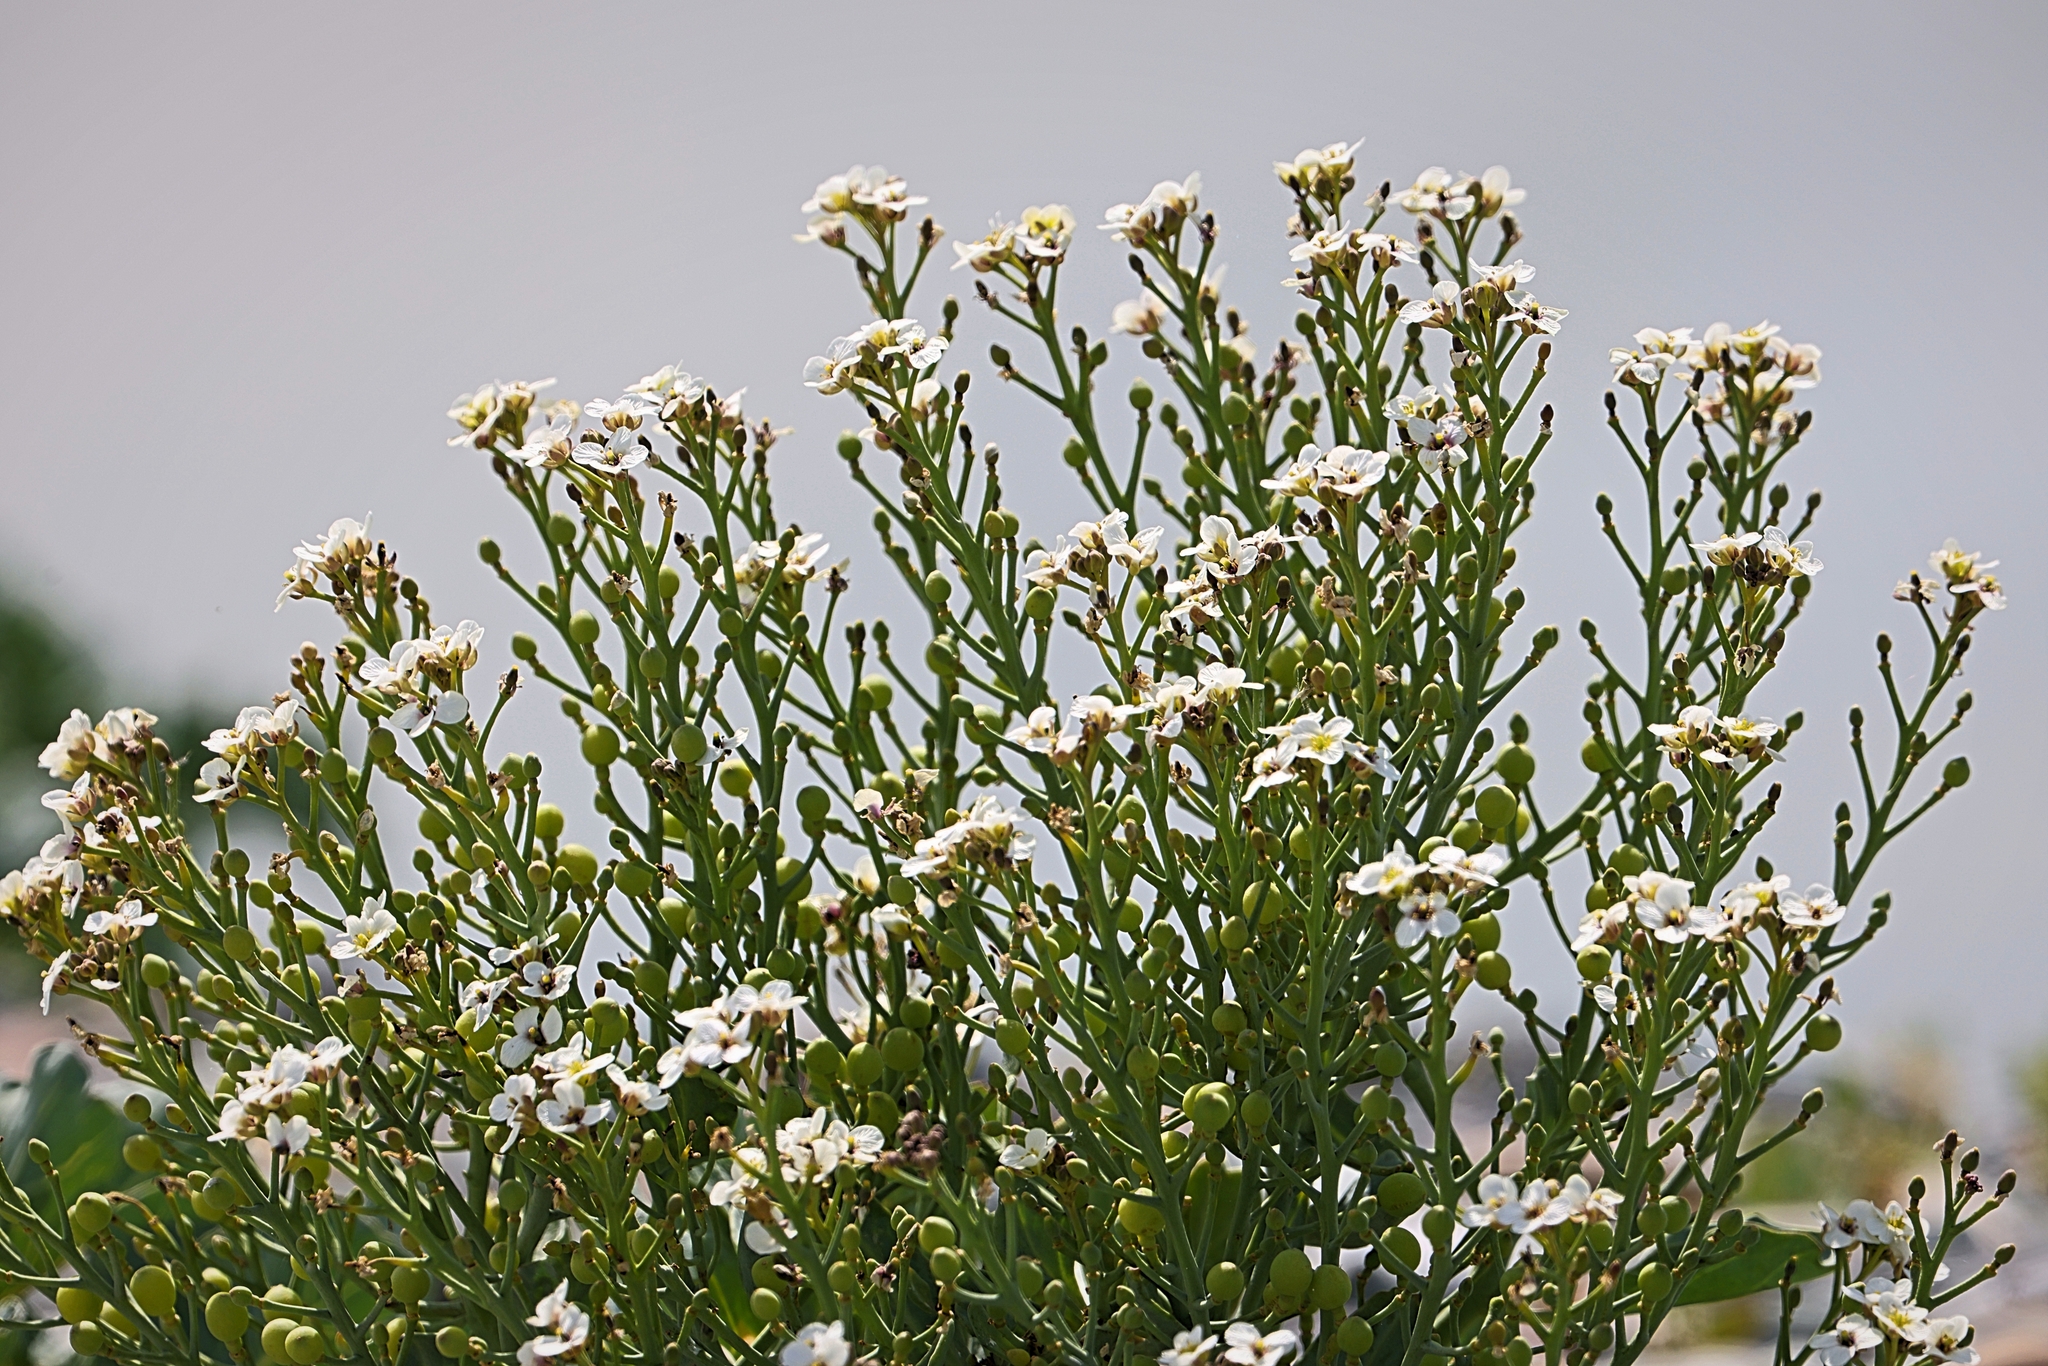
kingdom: Plantae
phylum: Tracheophyta
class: Magnoliopsida
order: Brassicales
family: Brassicaceae
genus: Crambe
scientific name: Crambe maritima
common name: Sea-kale
